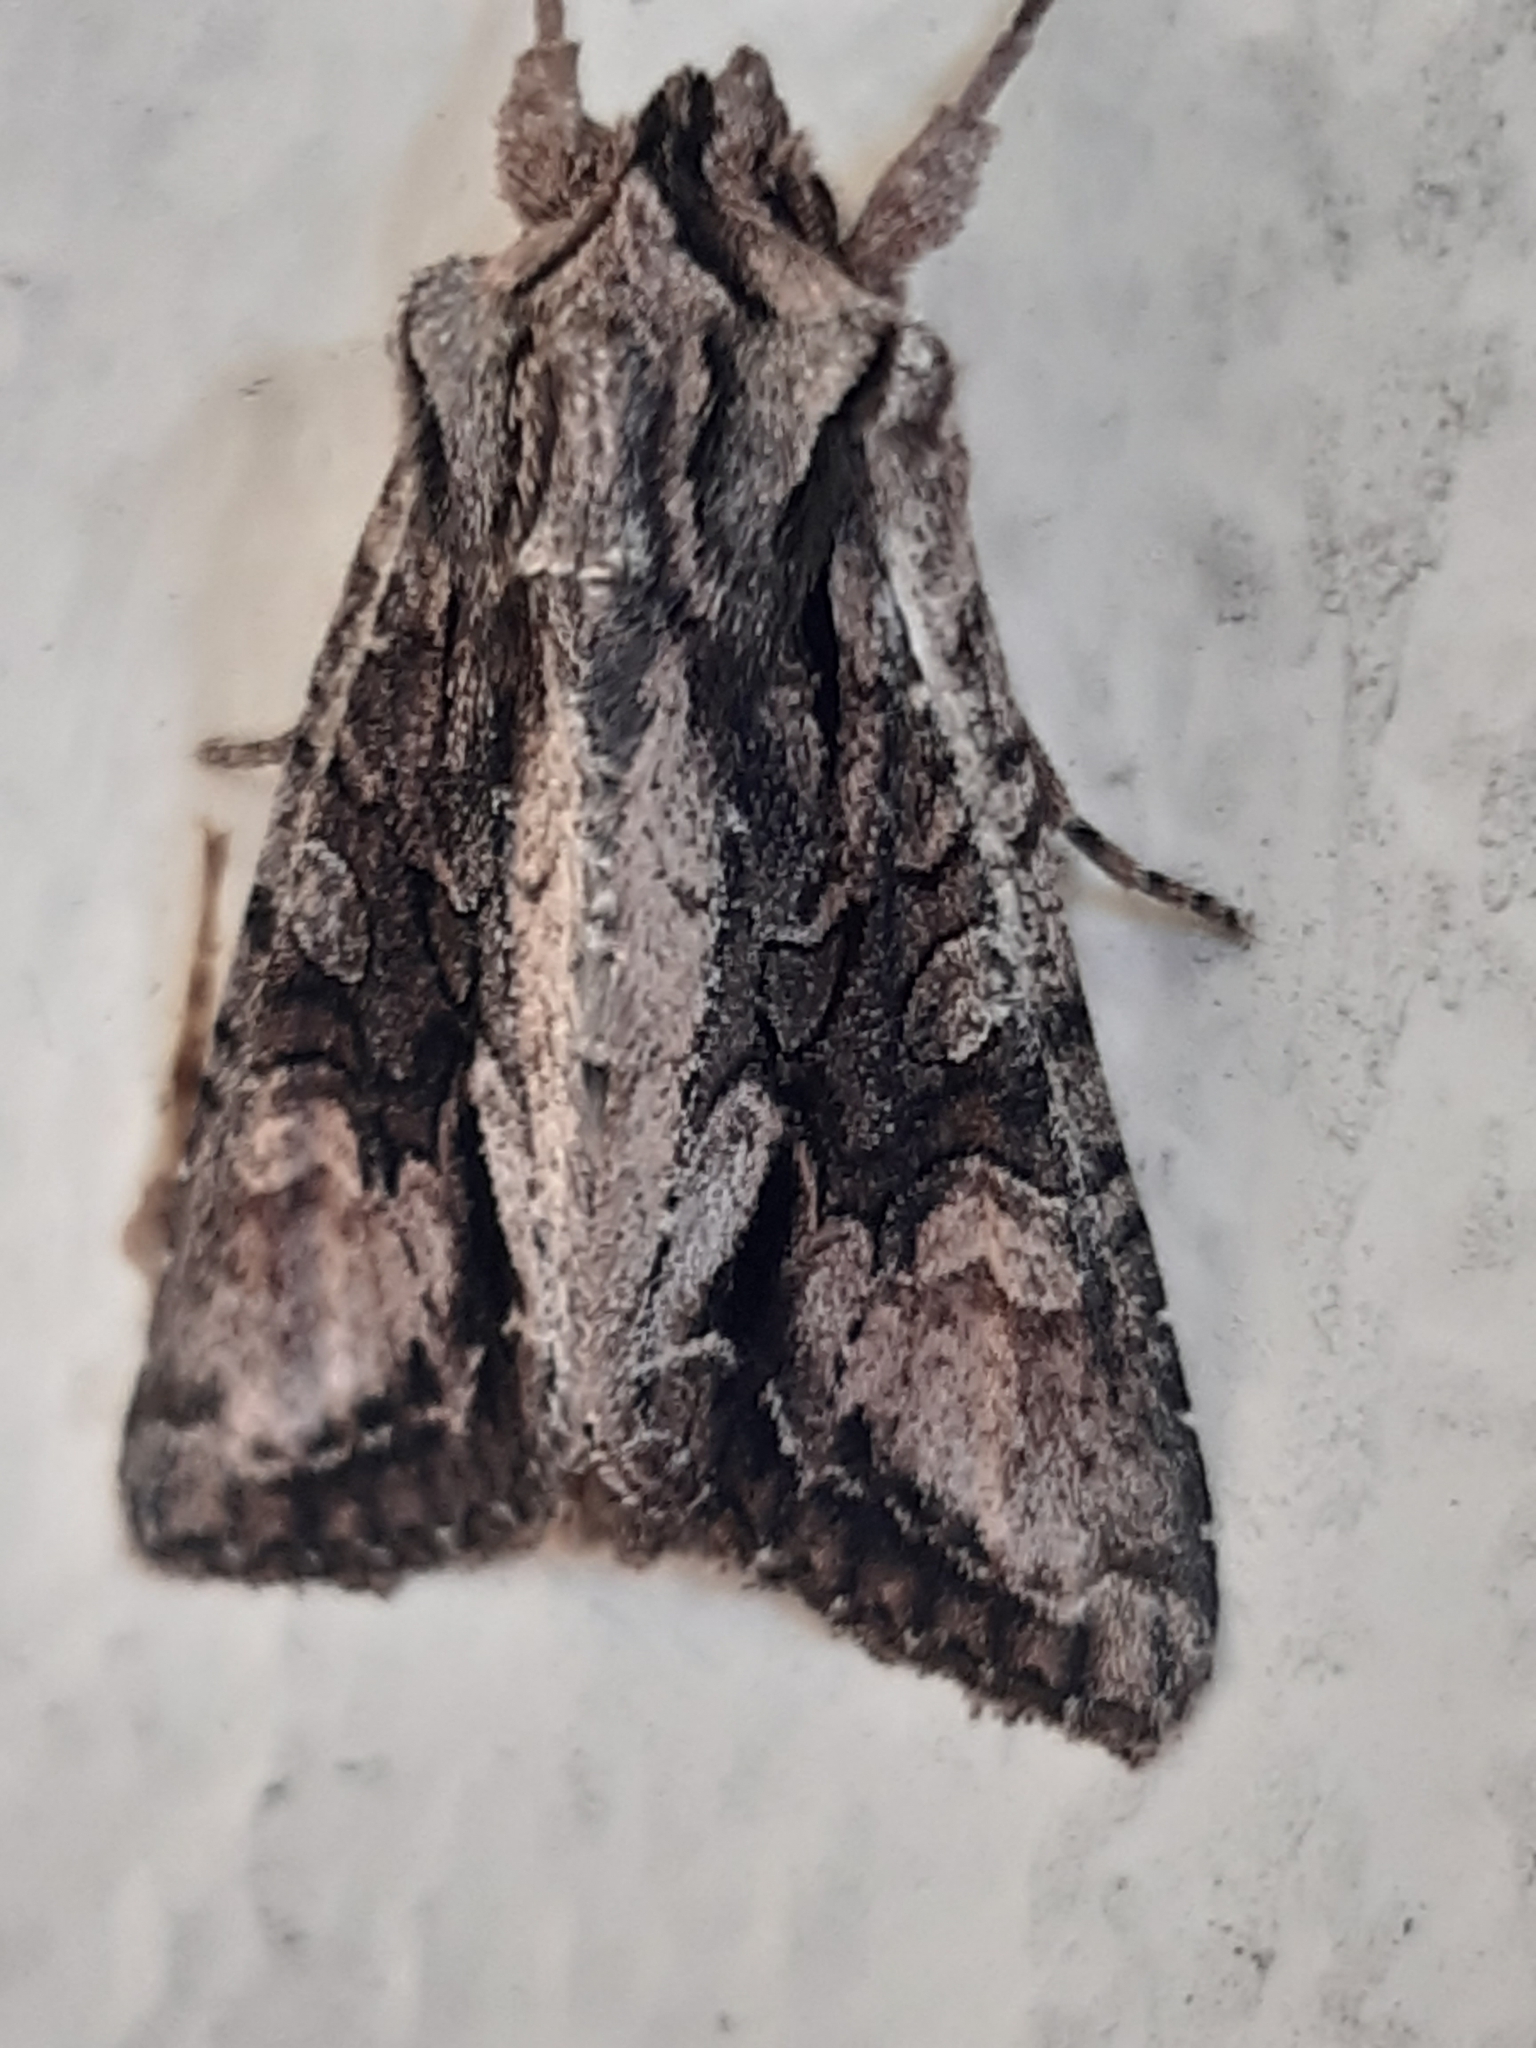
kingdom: Animalia
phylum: Arthropoda
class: Insecta
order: Lepidoptera
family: Noctuidae
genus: Ichneutica
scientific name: Ichneutica mutans
